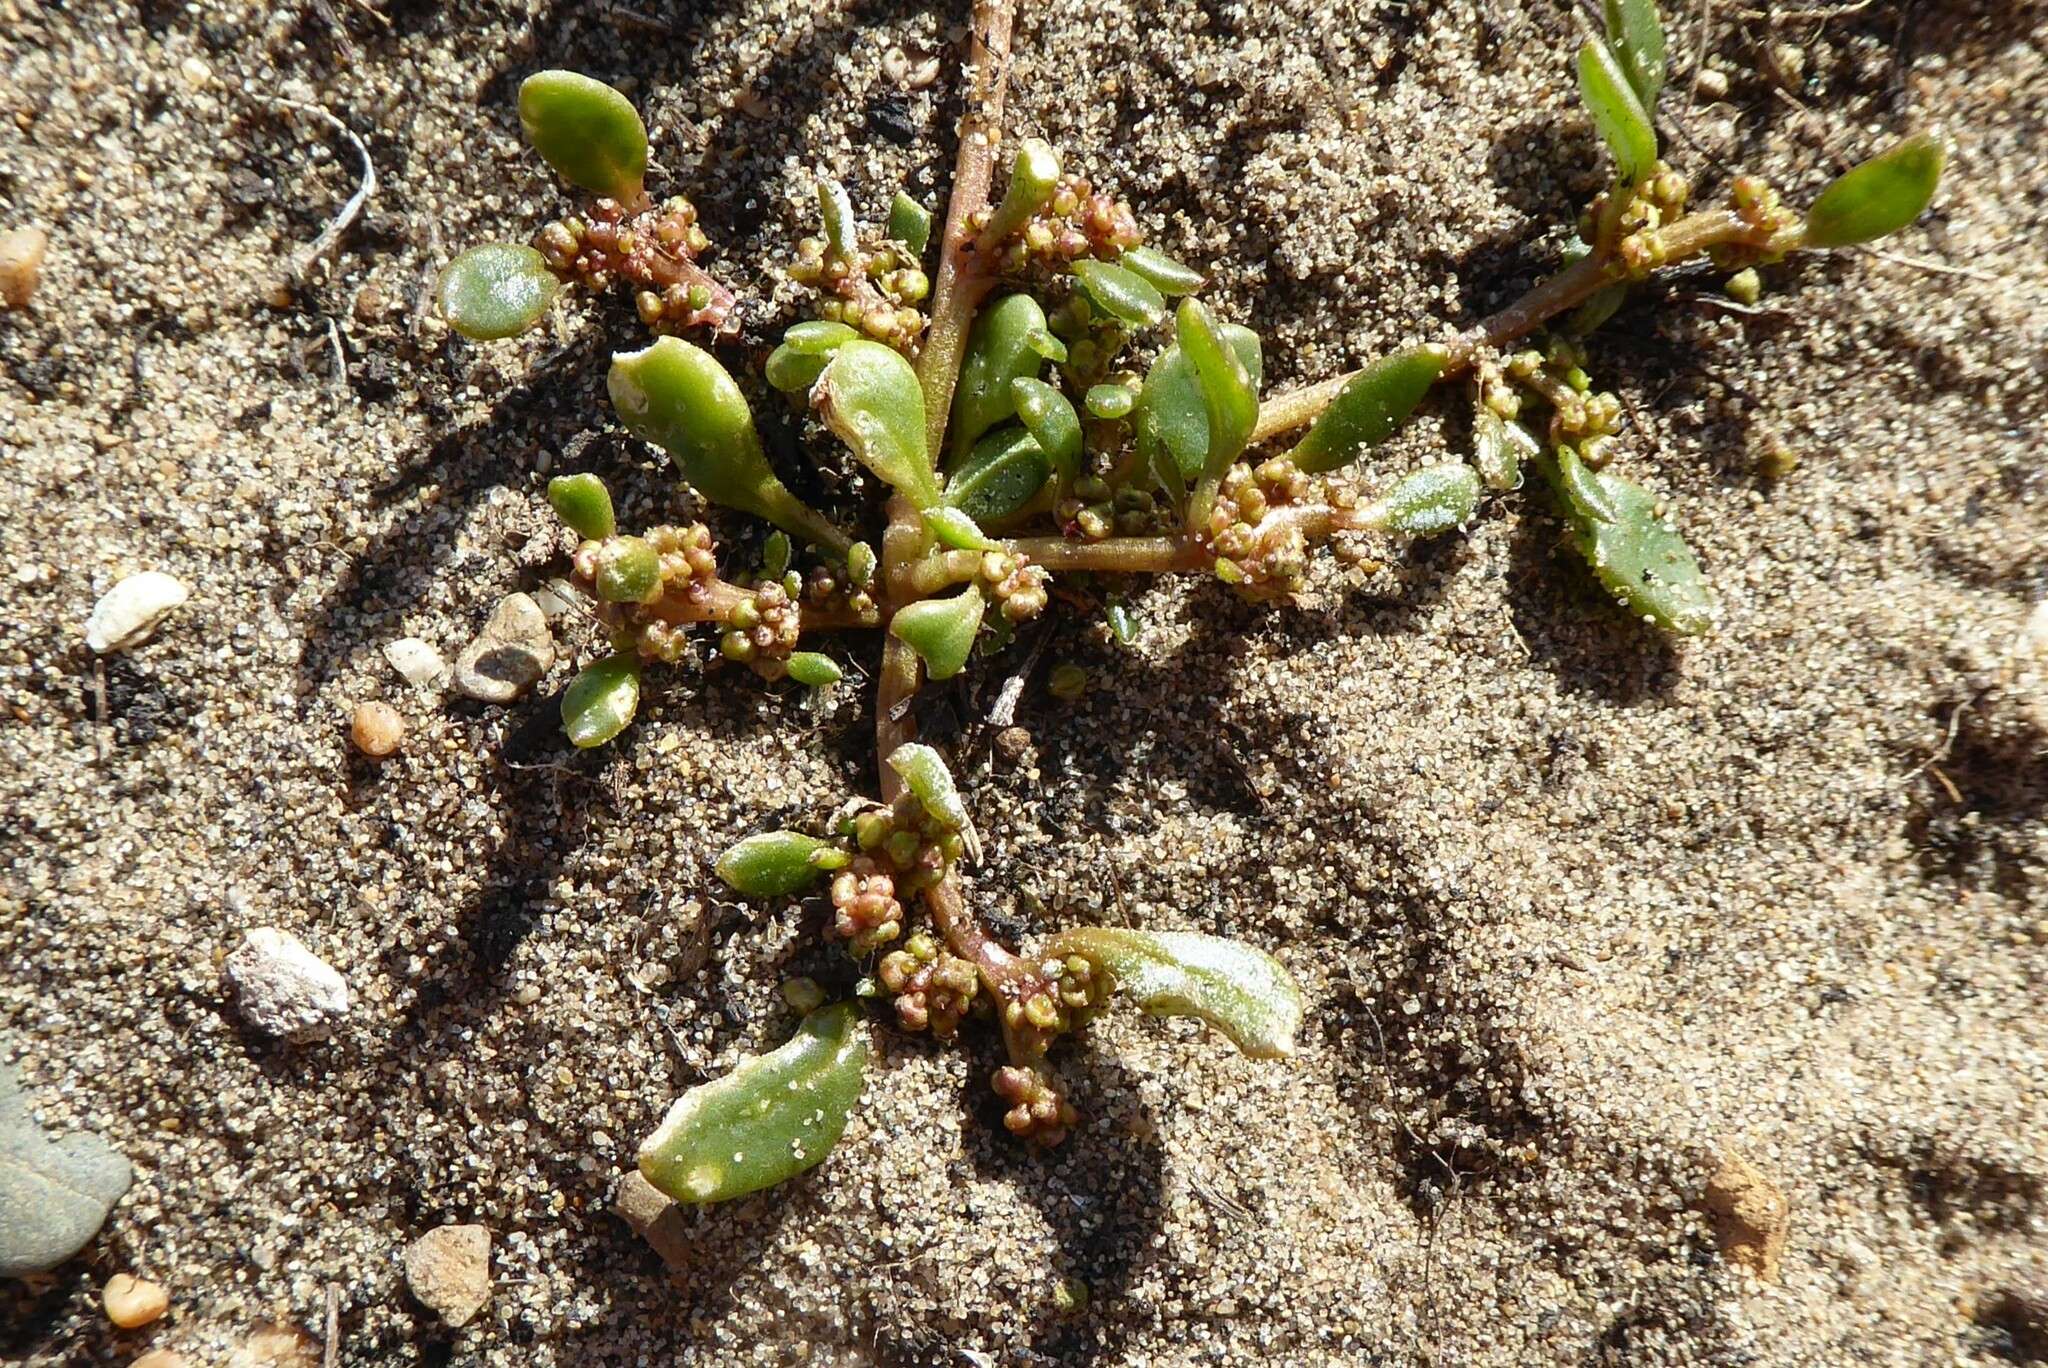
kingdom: Plantae
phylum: Tracheophyta
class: Magnoliopsida
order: Caryophyllales
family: Amaranthaceae
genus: Oxybasis
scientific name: Oxybasis ambigua
